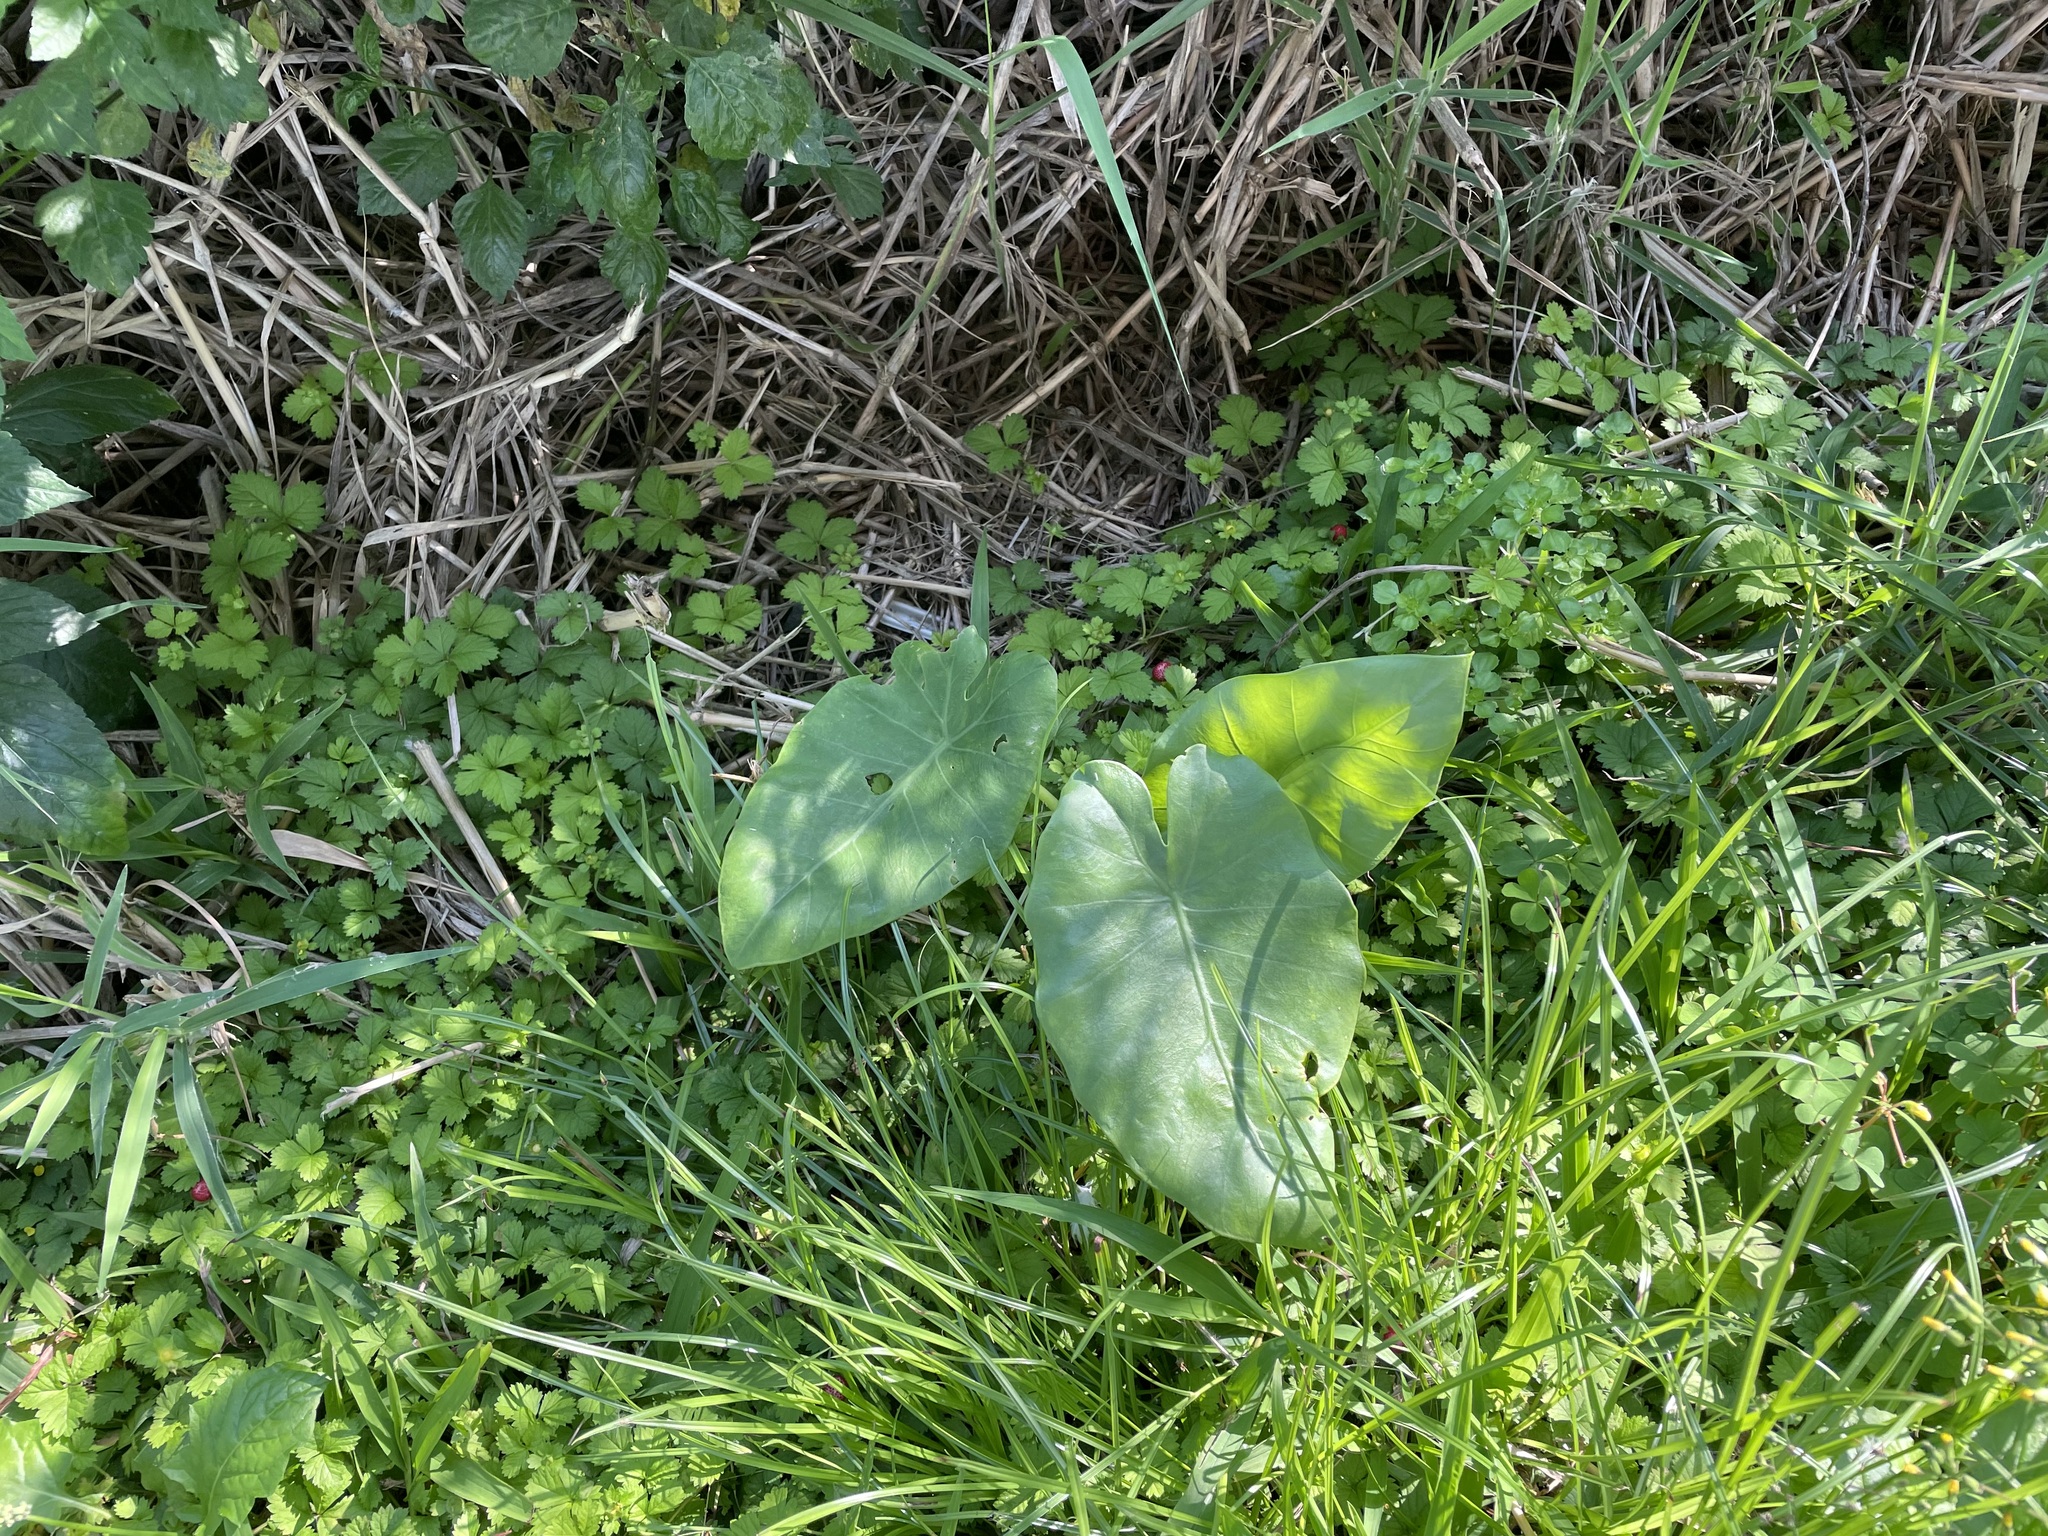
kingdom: Plantae
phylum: Tracheophyta
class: Liliopsida
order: Alismatales
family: Araceae
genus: Alocasia
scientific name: Alocasia odora
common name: Asian taro
